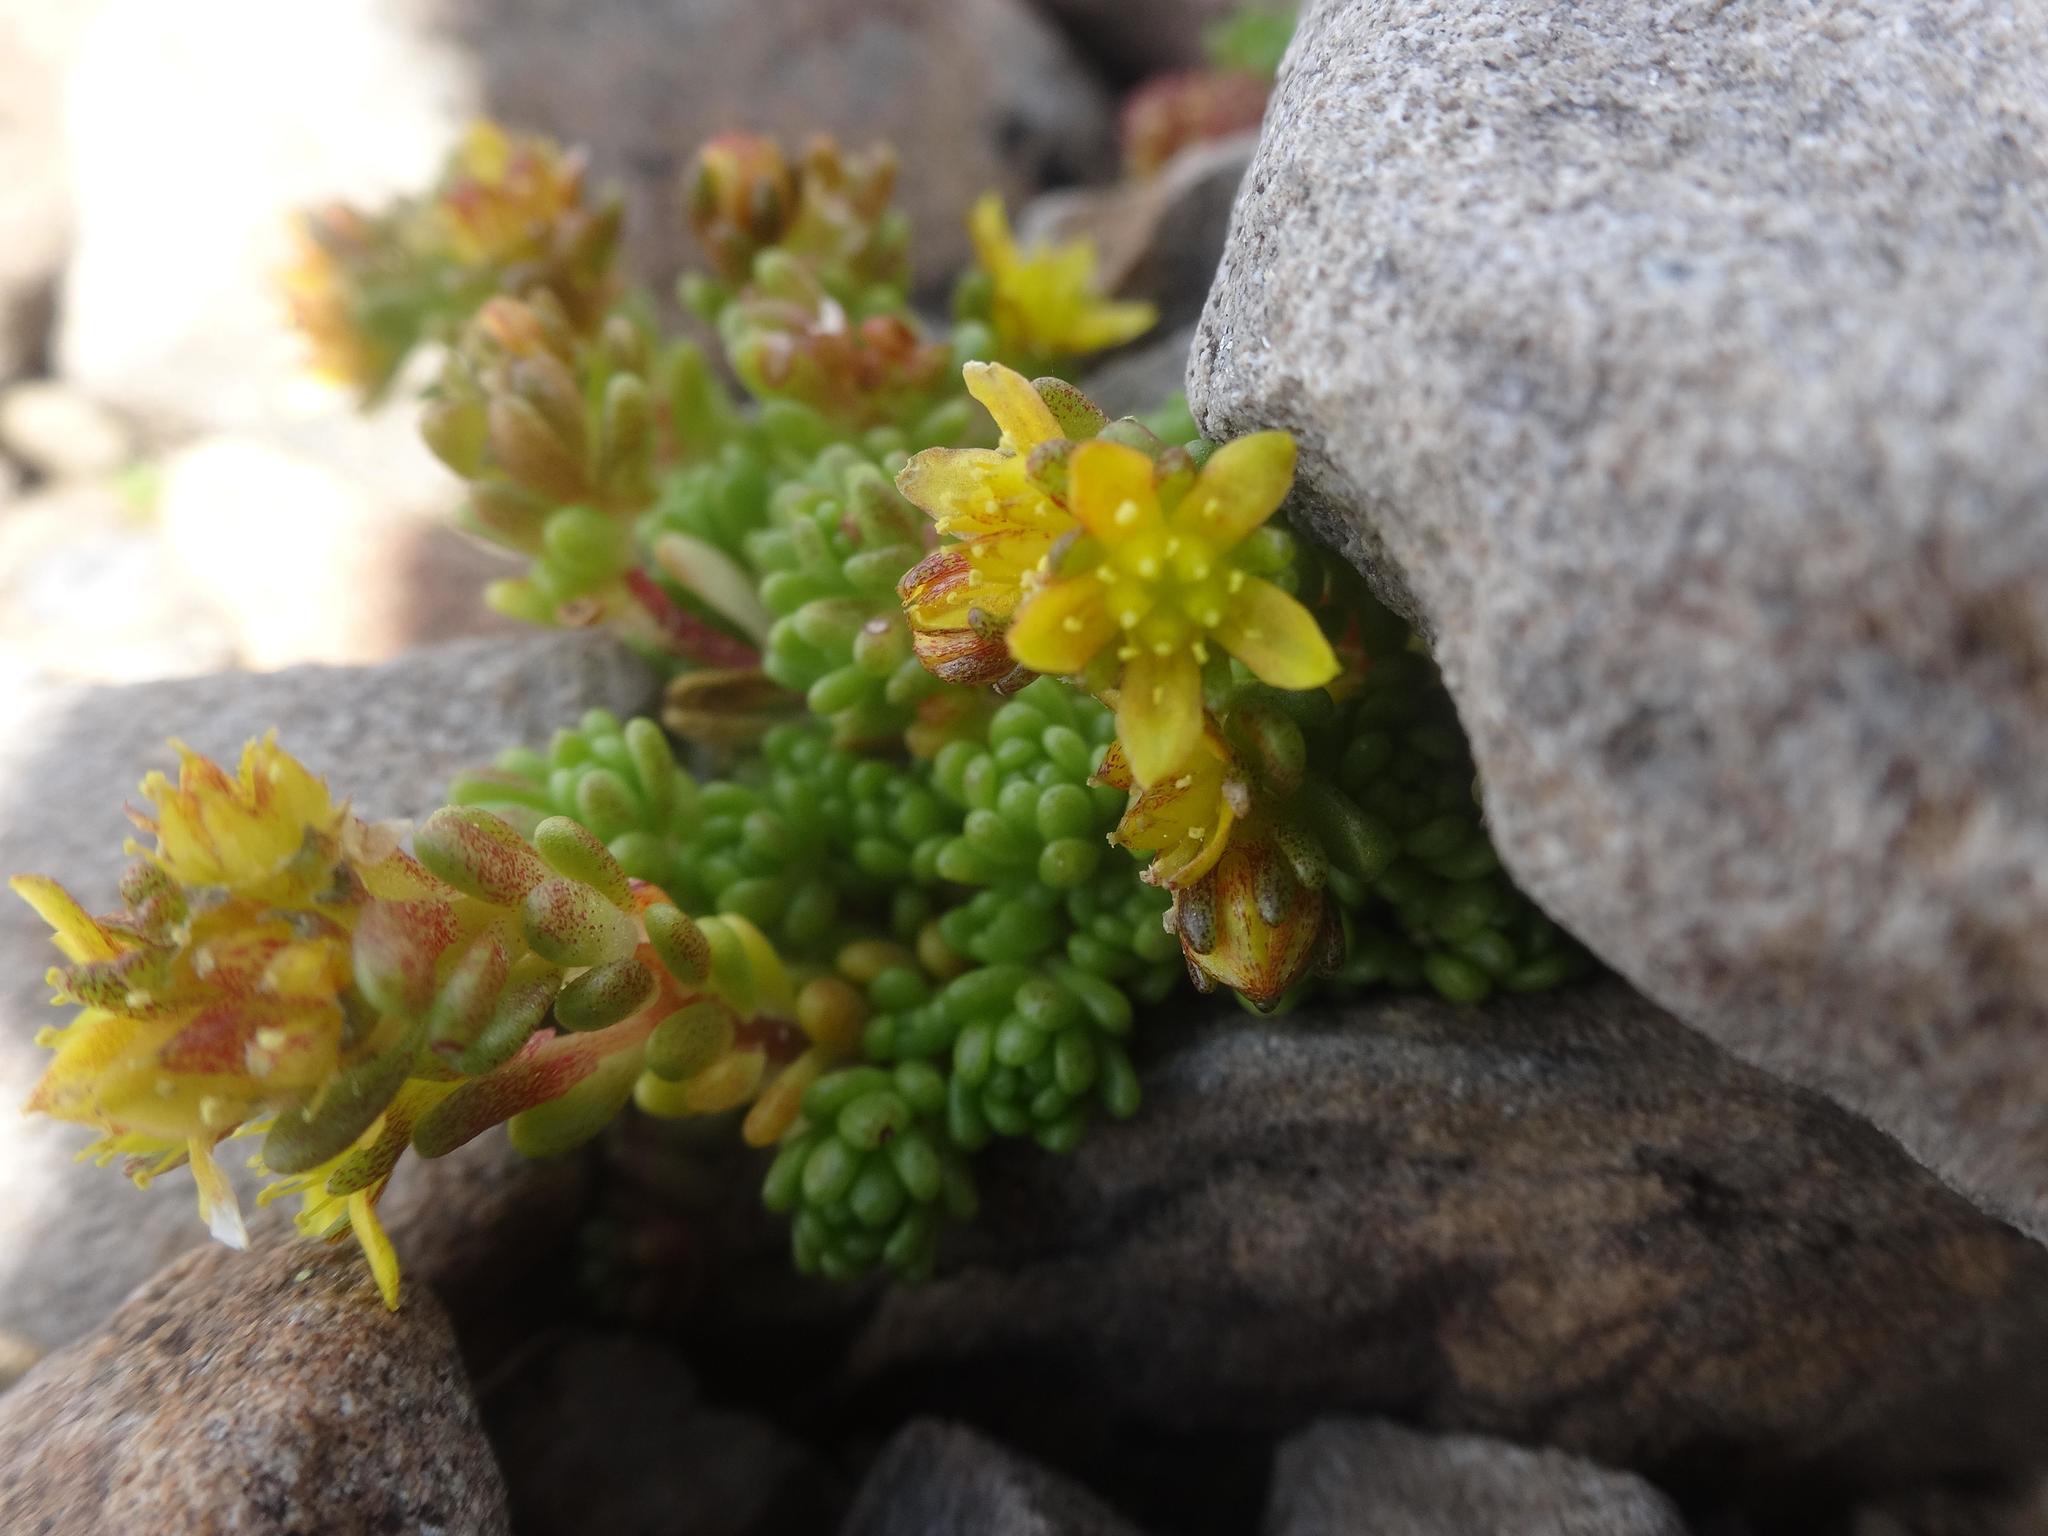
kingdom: Plantae
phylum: Tracheophyta
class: Magnoliopsida
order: Saxifragales
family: Crassulaceae
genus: Sedum
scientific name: Sedum alpestre
